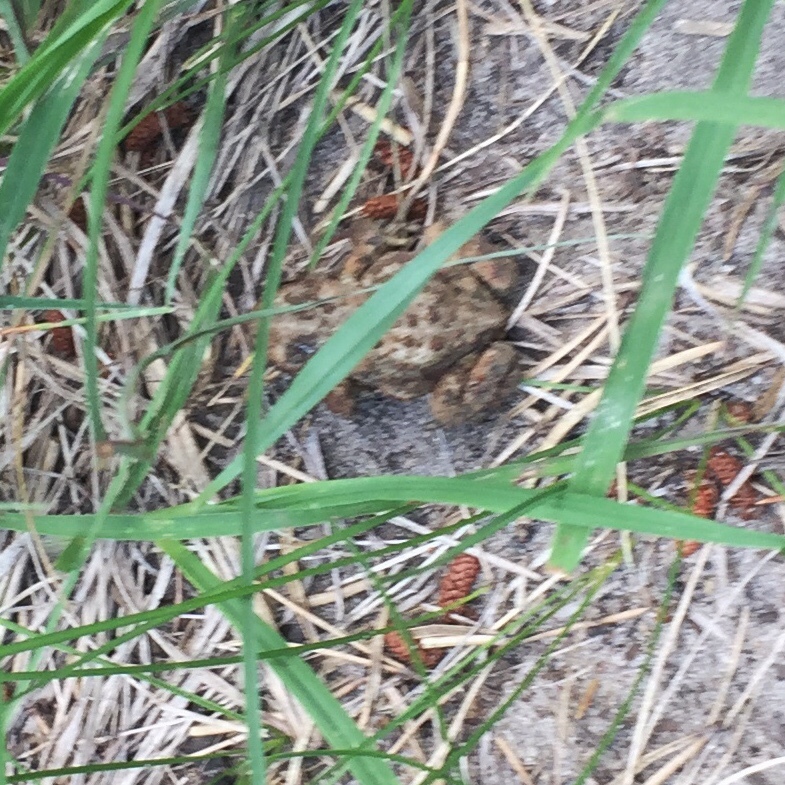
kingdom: Animalia
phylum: Chordata
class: Amphibia
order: Anura
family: Bufonidae
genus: Anaxyrus
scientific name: Anaxyrus americanus
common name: American toad
